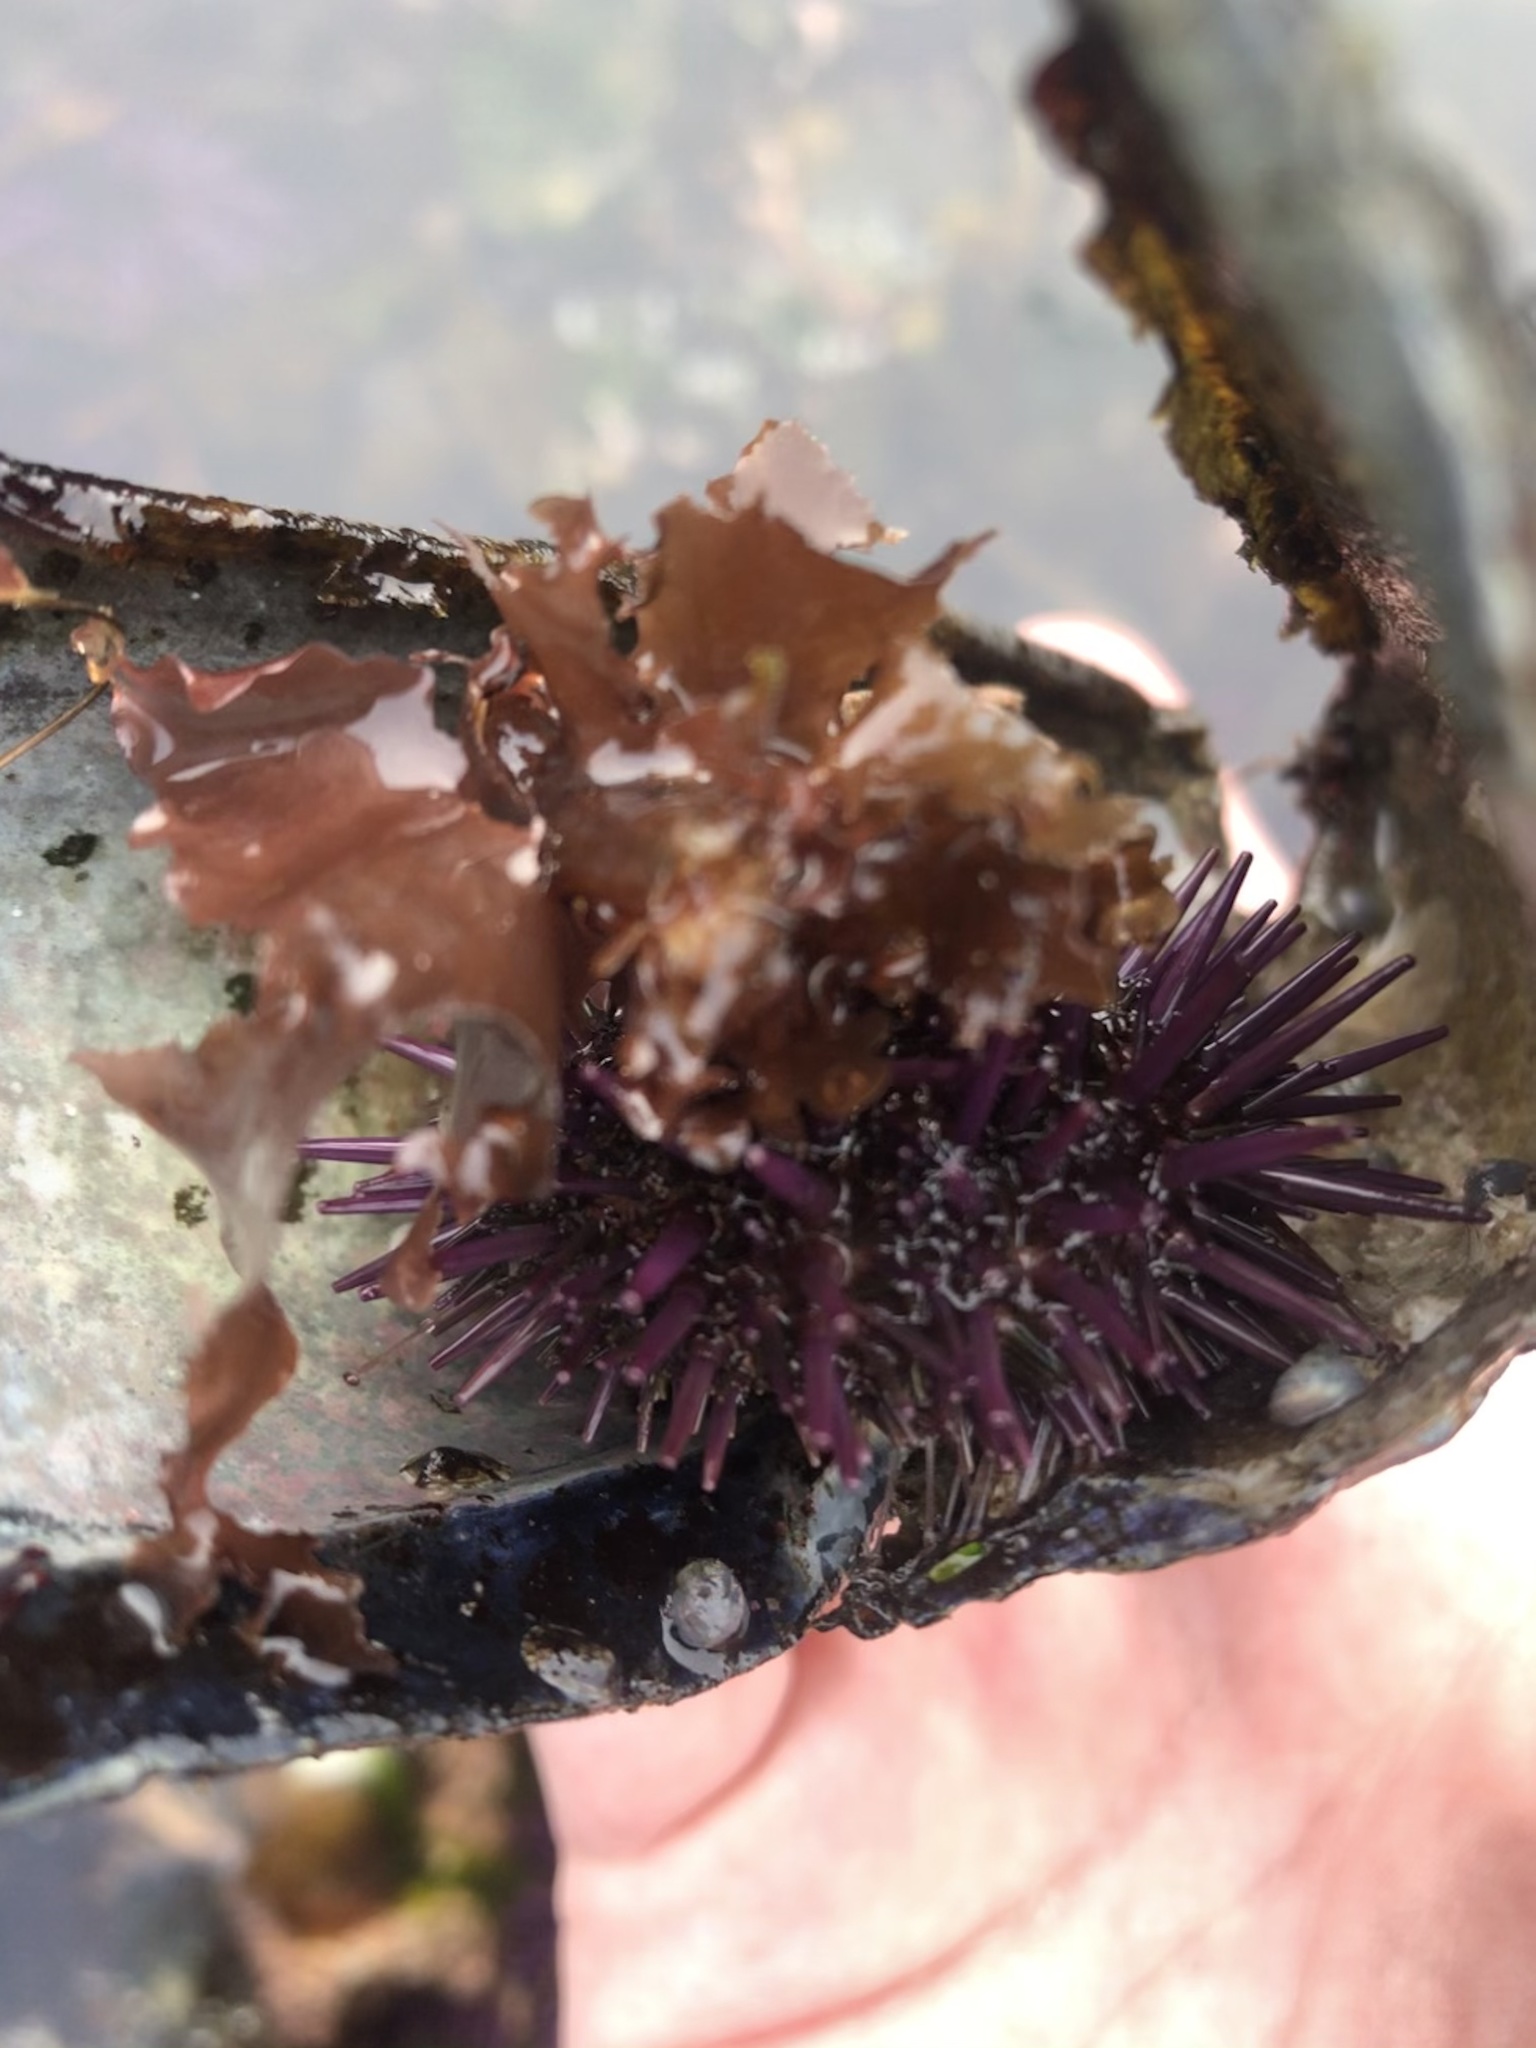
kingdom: Animalia
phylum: Echinodermata
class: Echinoidea
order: Camarodonta
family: Strongylocentrotidae
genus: Strongylocentrotus
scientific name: Strongylocentrotus purpuratus
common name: Purple sea urchin
